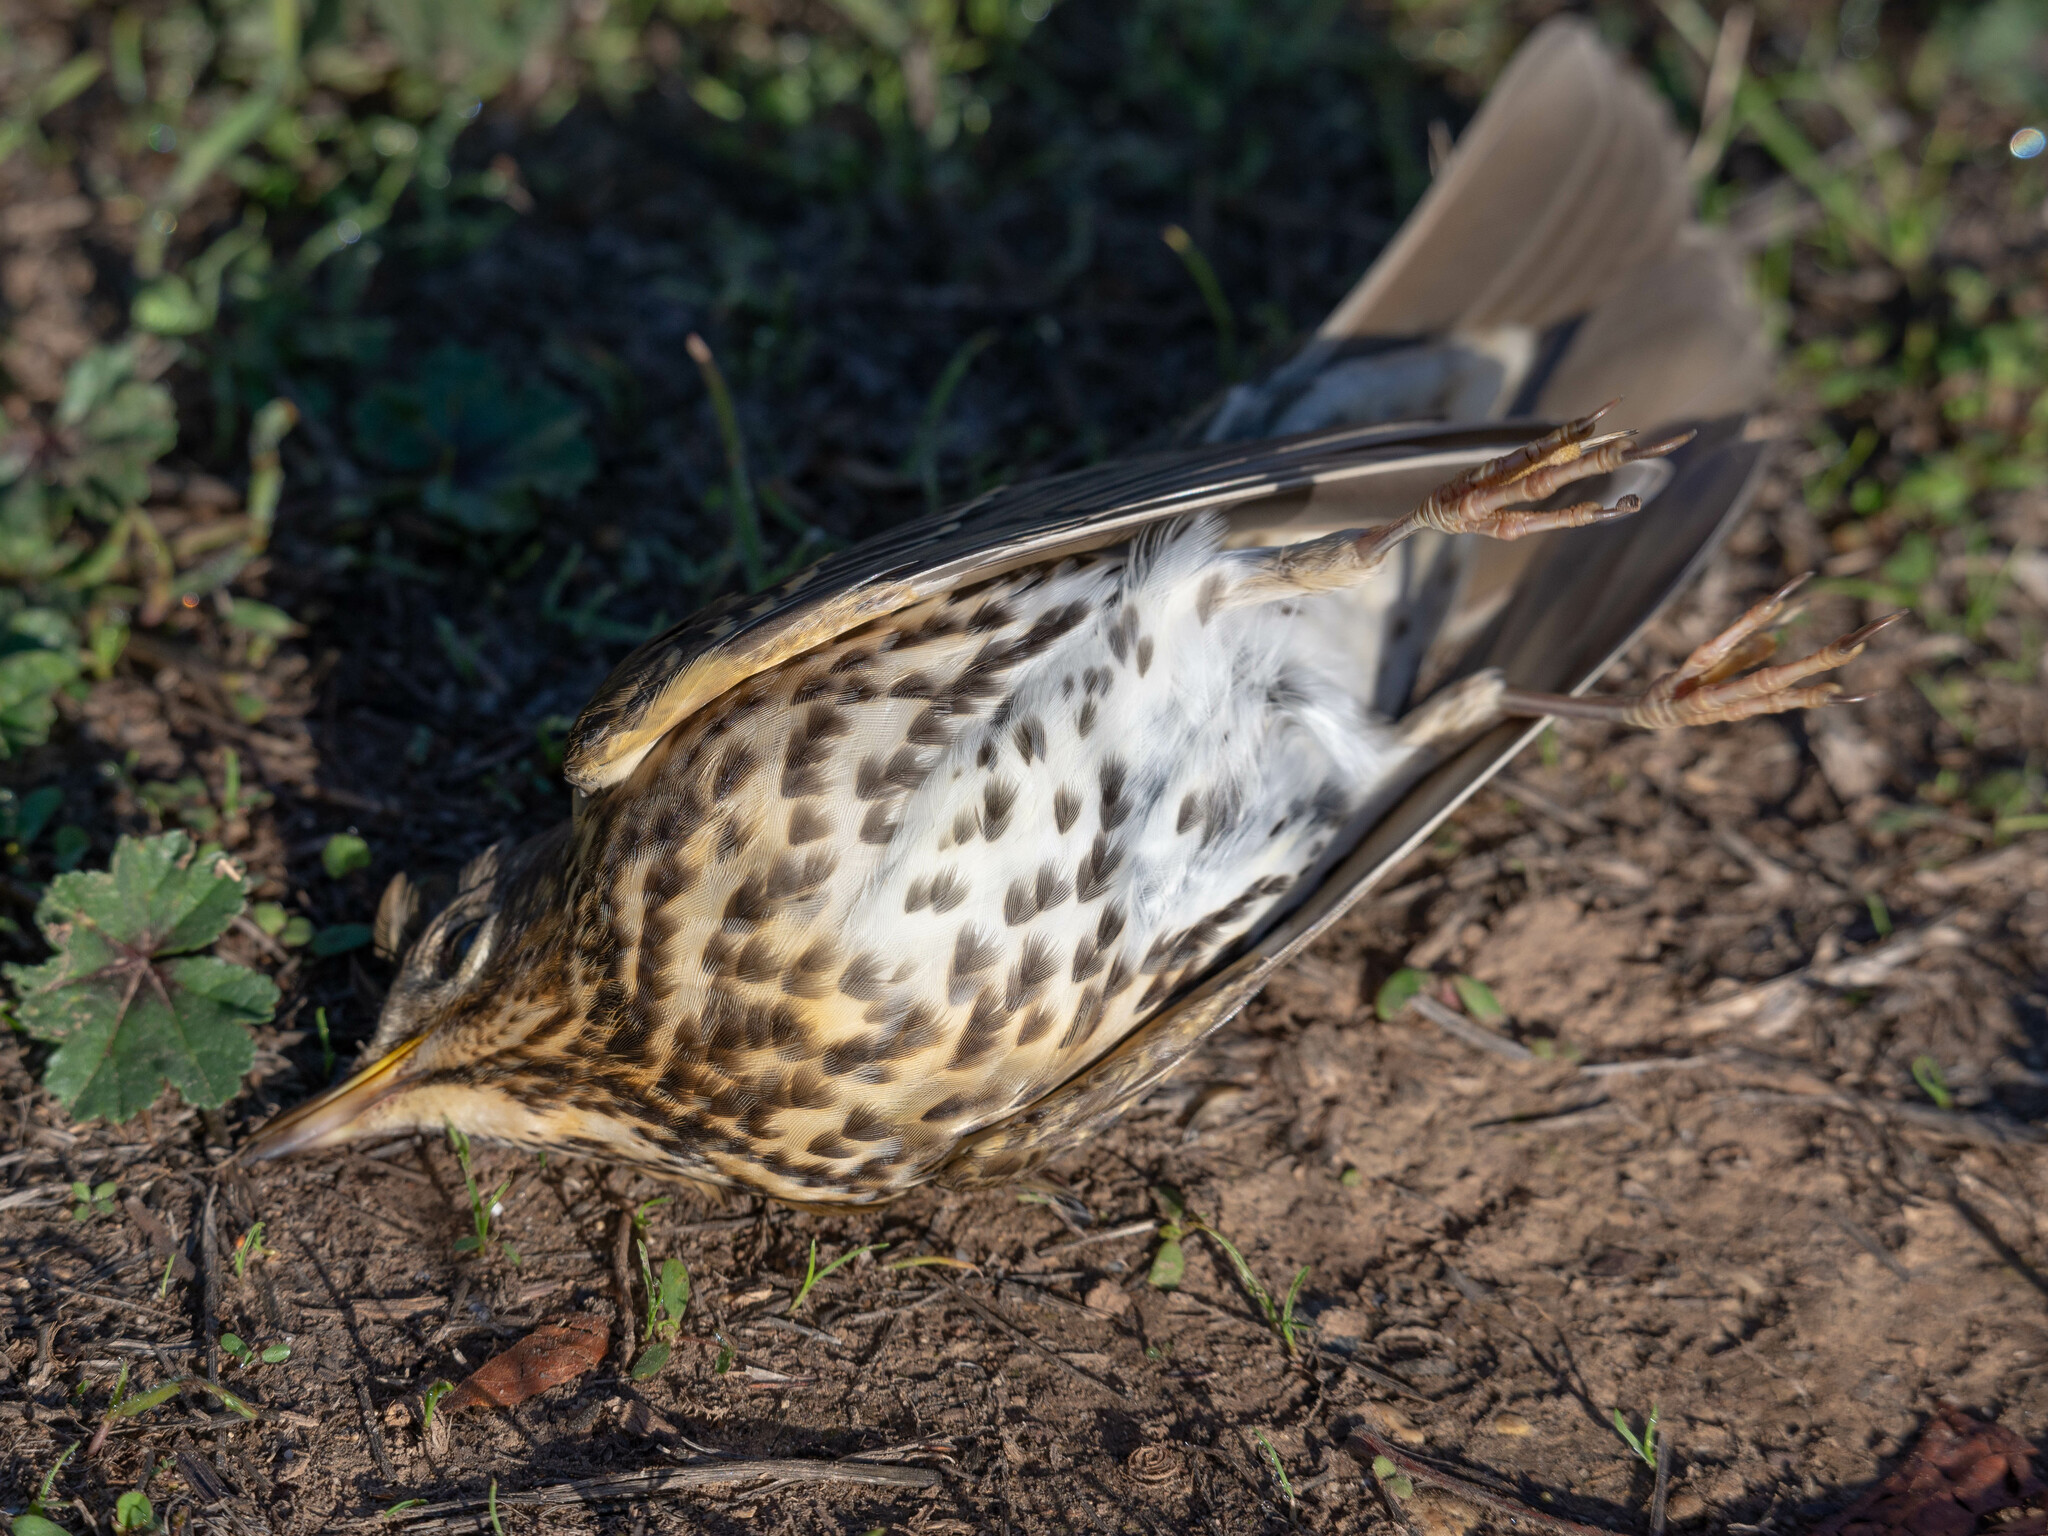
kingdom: Animalia
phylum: Chordata
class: Aves
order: Passeriformes
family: Turdidae
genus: Turdus
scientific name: Turdus philomelos
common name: Song thrush
